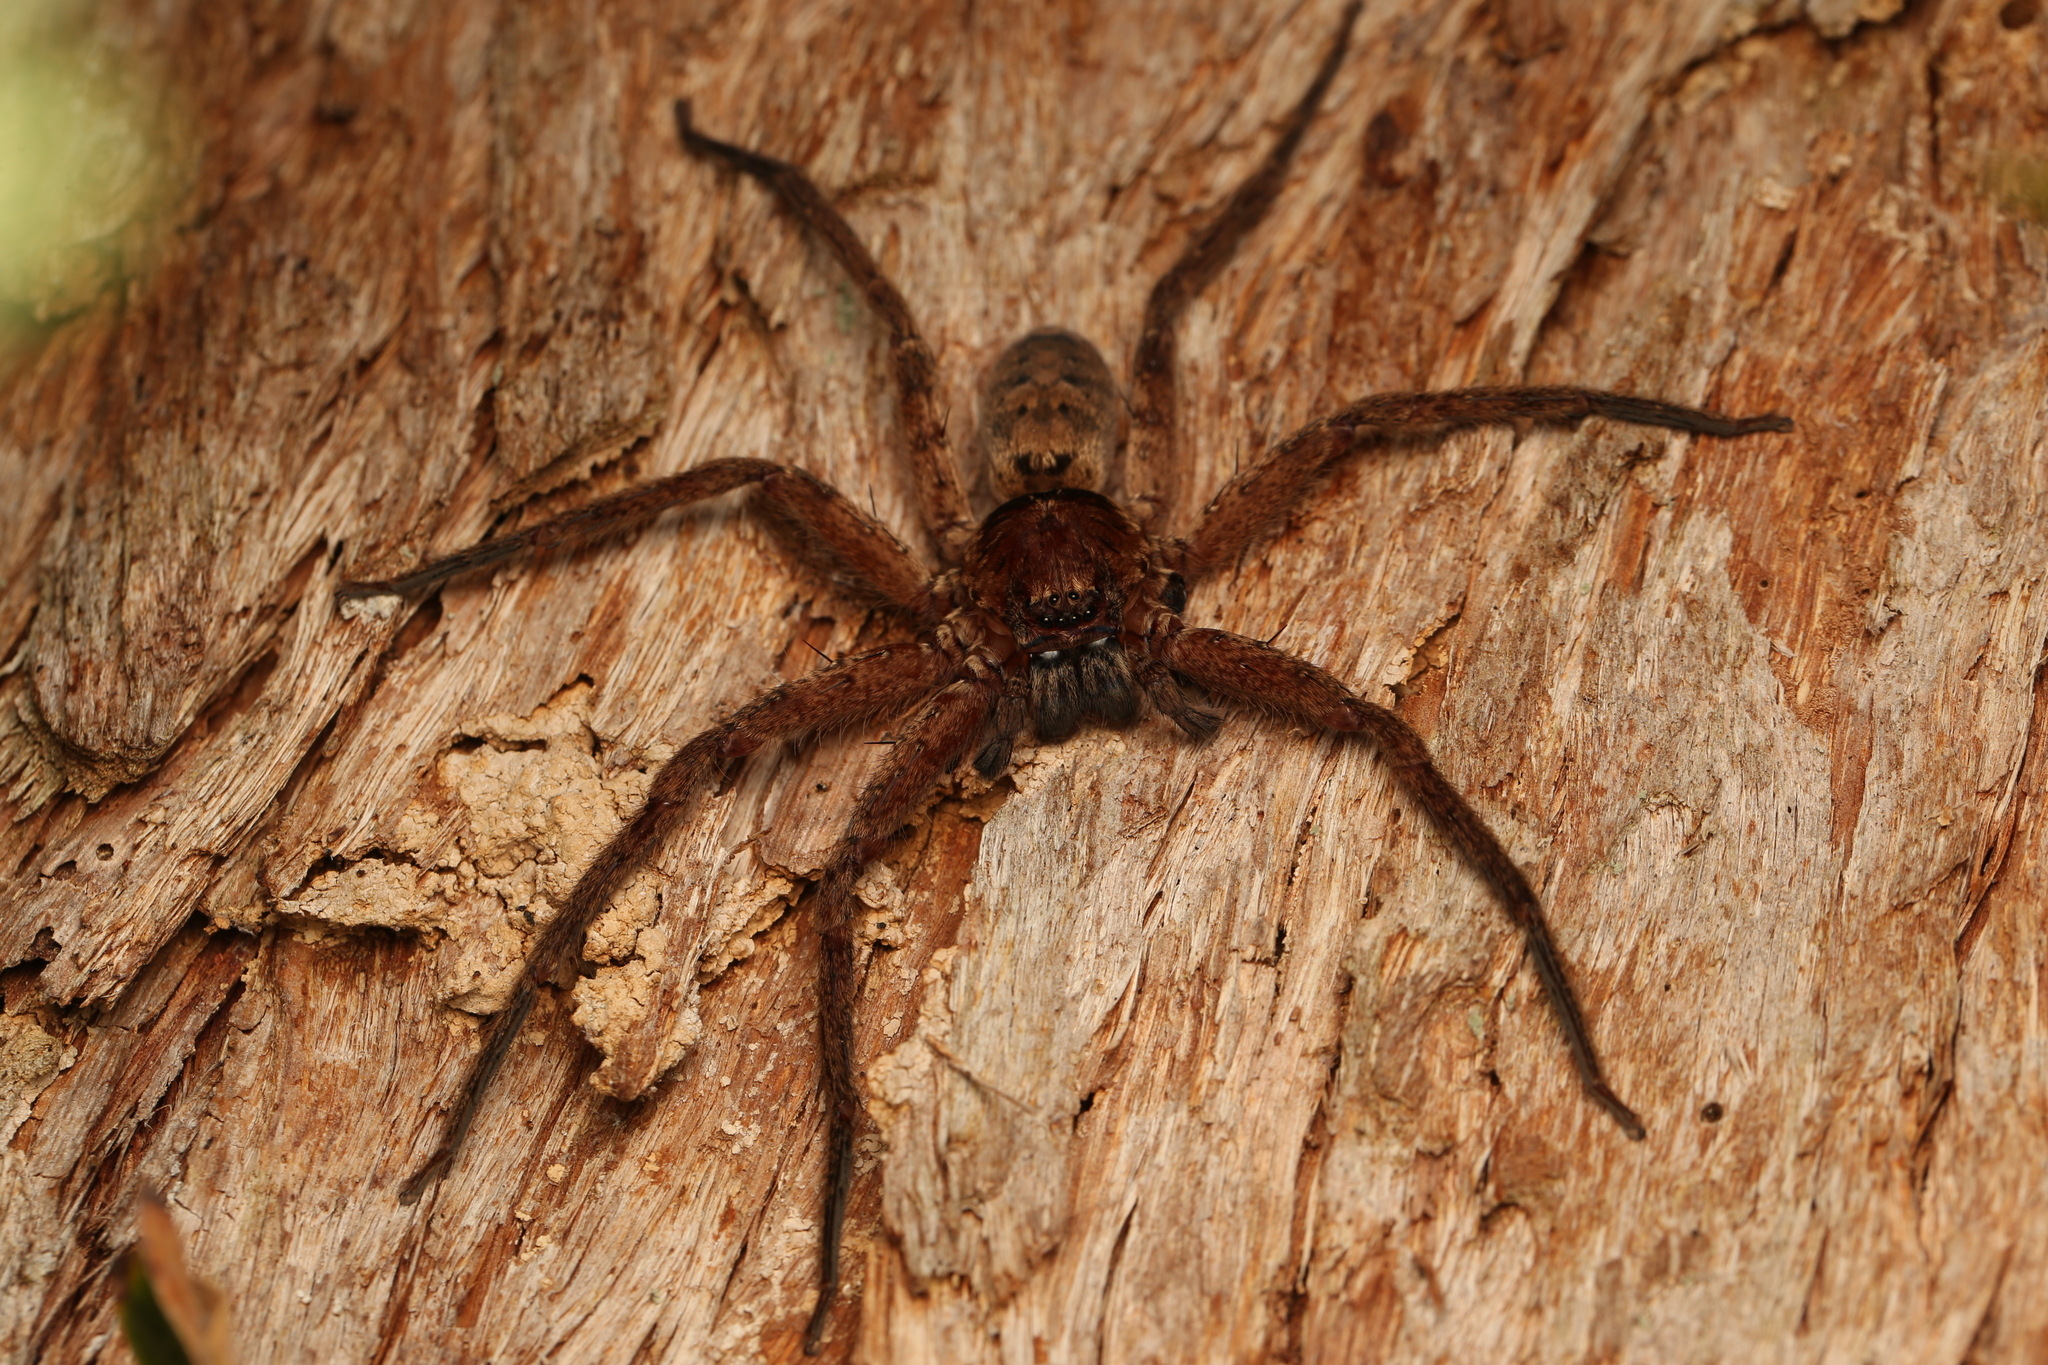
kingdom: Animalia
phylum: Arthropoda
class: Arachnida
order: Araneae
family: Sparassidae
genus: Heteropoda
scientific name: Heteropoda jugulans
